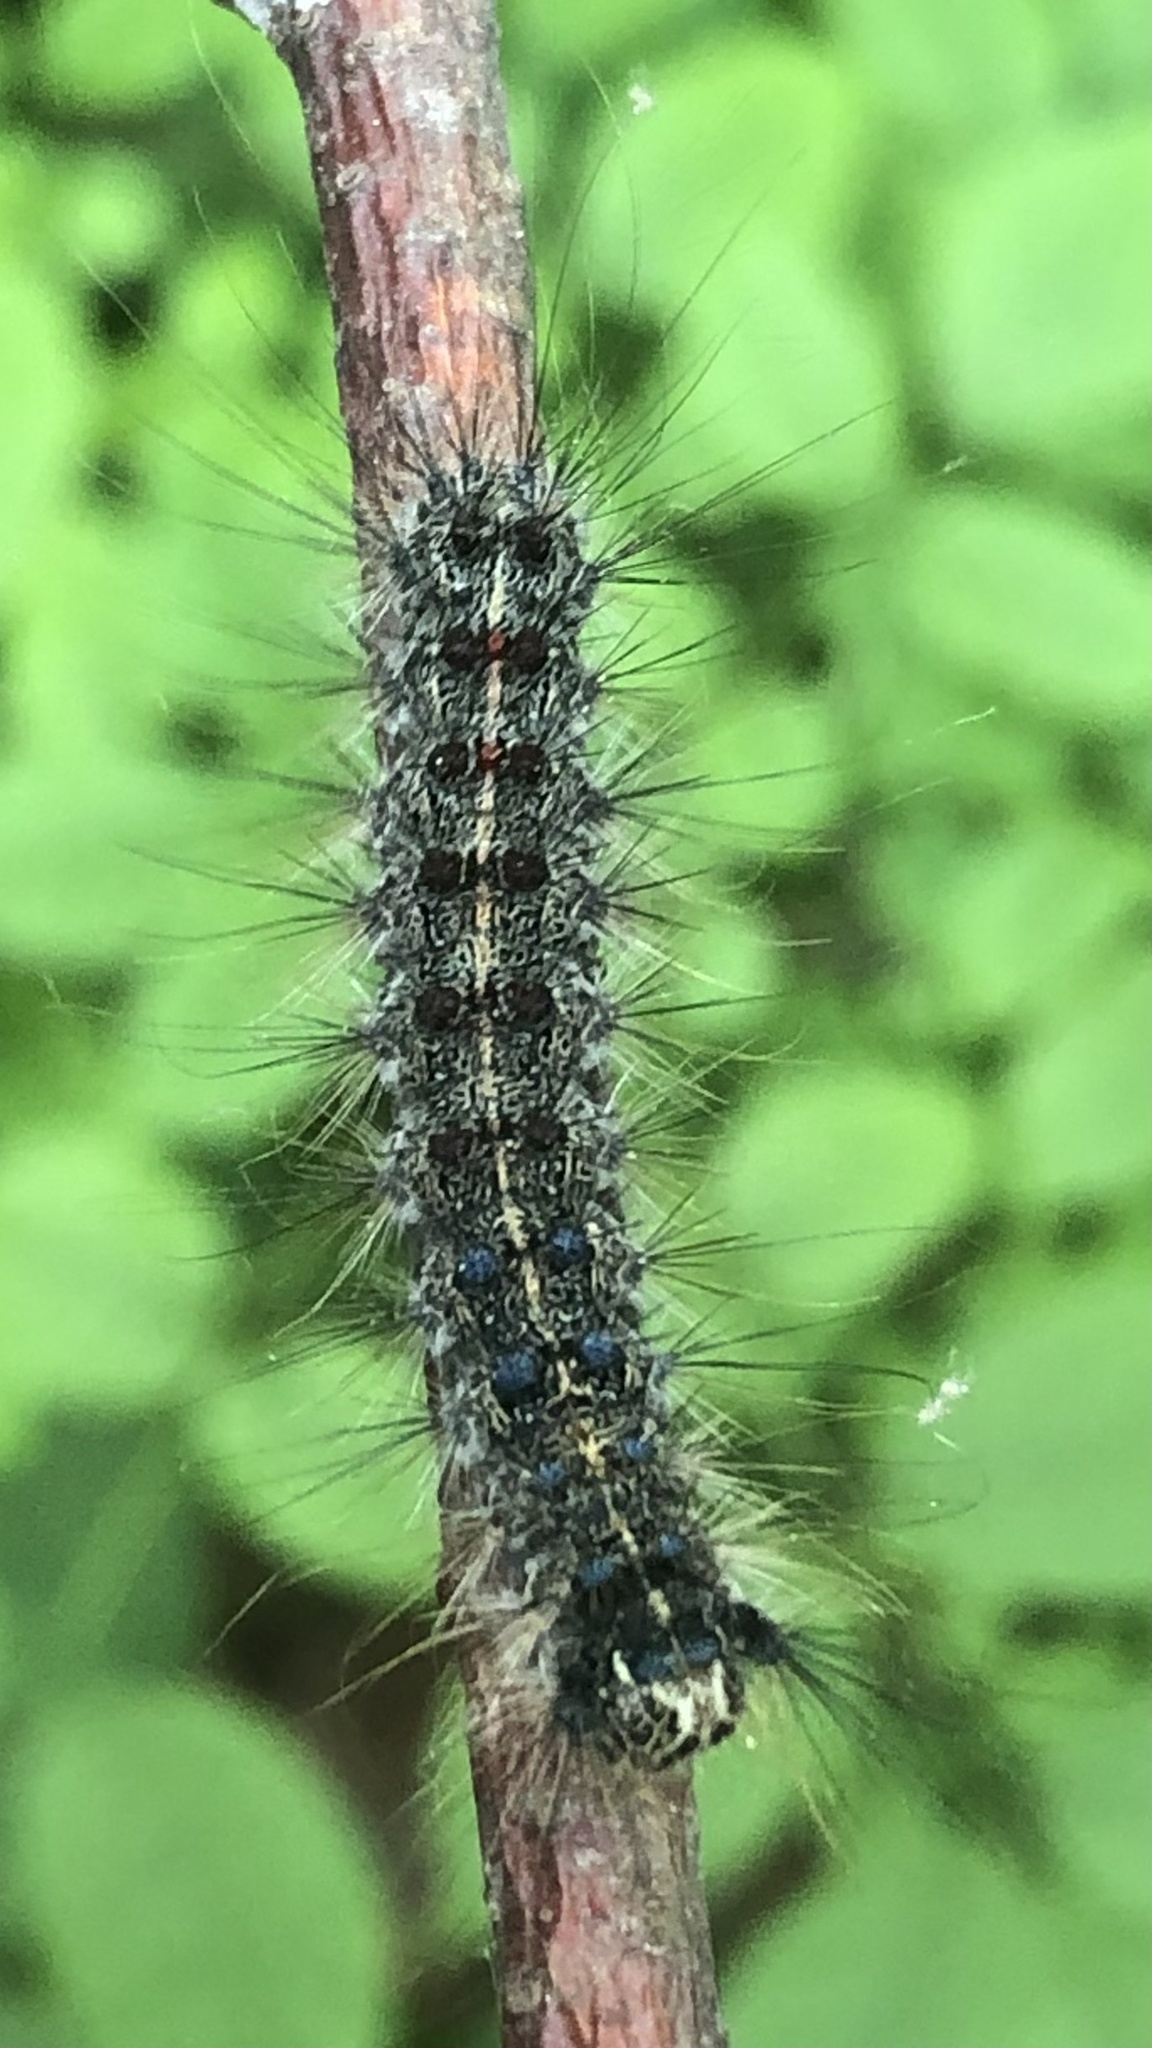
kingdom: Animalia
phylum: Arthropoda
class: Insecta
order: Lepidoptera
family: Erebidae
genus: Lymantria
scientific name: Lymantria dispar
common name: Gypsy moth
